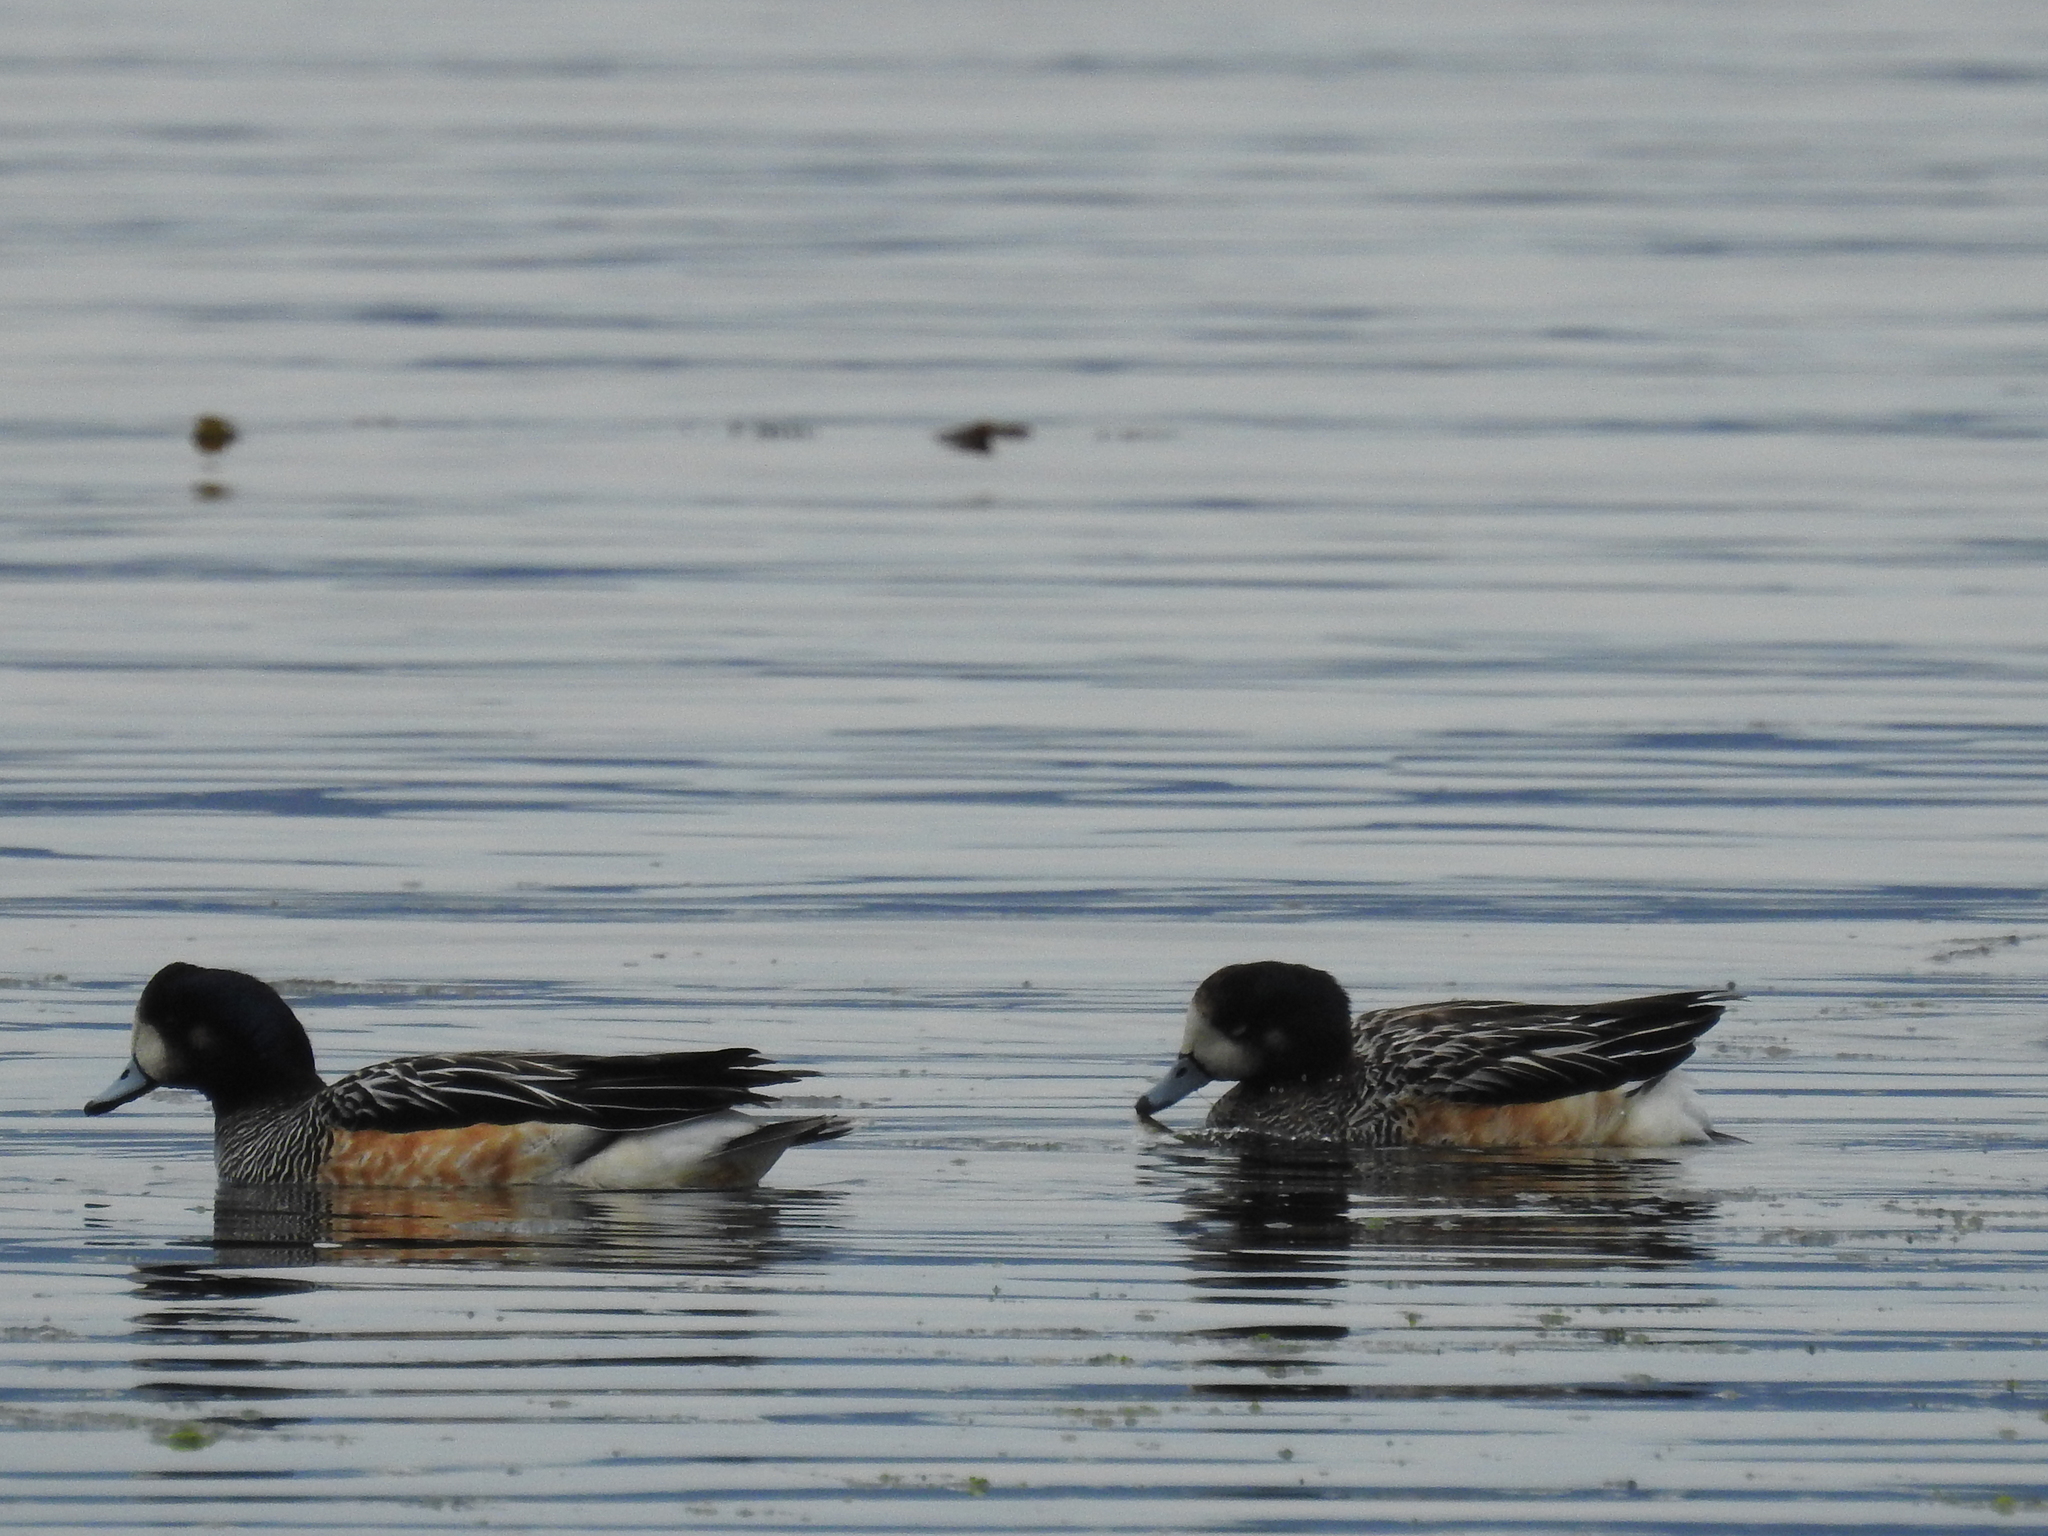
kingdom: Animalia
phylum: Chordata
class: Aves
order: Anseriformes
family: Anatidae
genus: Mareca
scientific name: Mareca sibilatrix
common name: Chiloe wigeon
